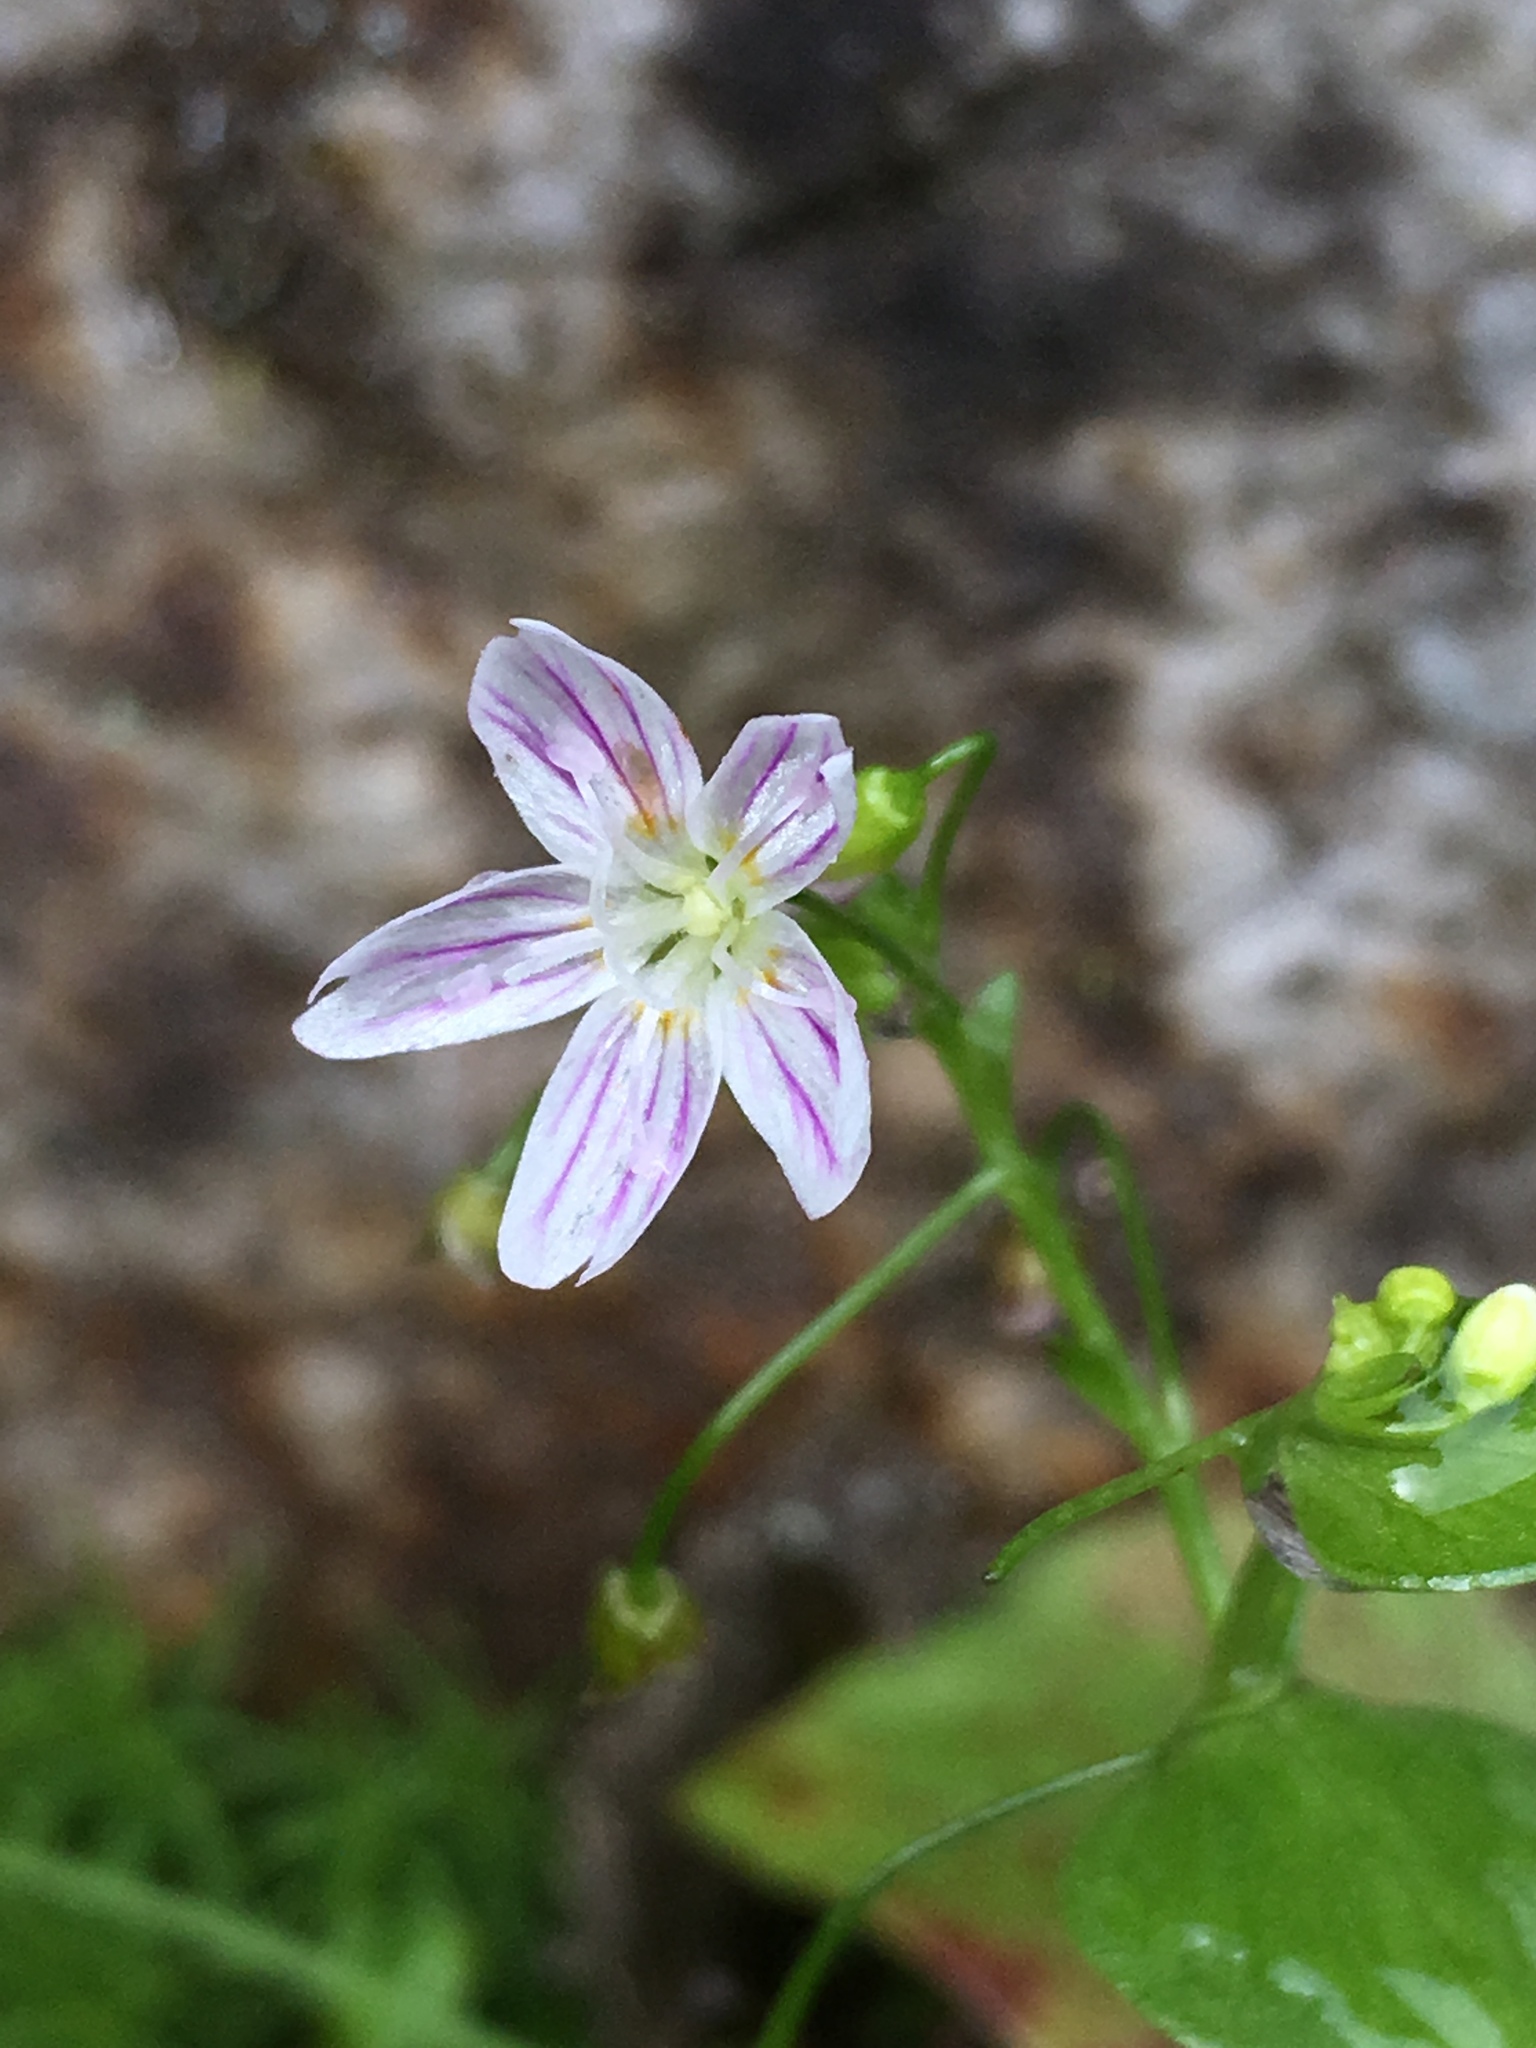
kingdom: Plantae
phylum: Tracheophyta
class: Magnoliopsida
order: Caryophyllales
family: Montiaceae
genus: Claytonia
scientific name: Claytonia sibirica
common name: Pink purslane
